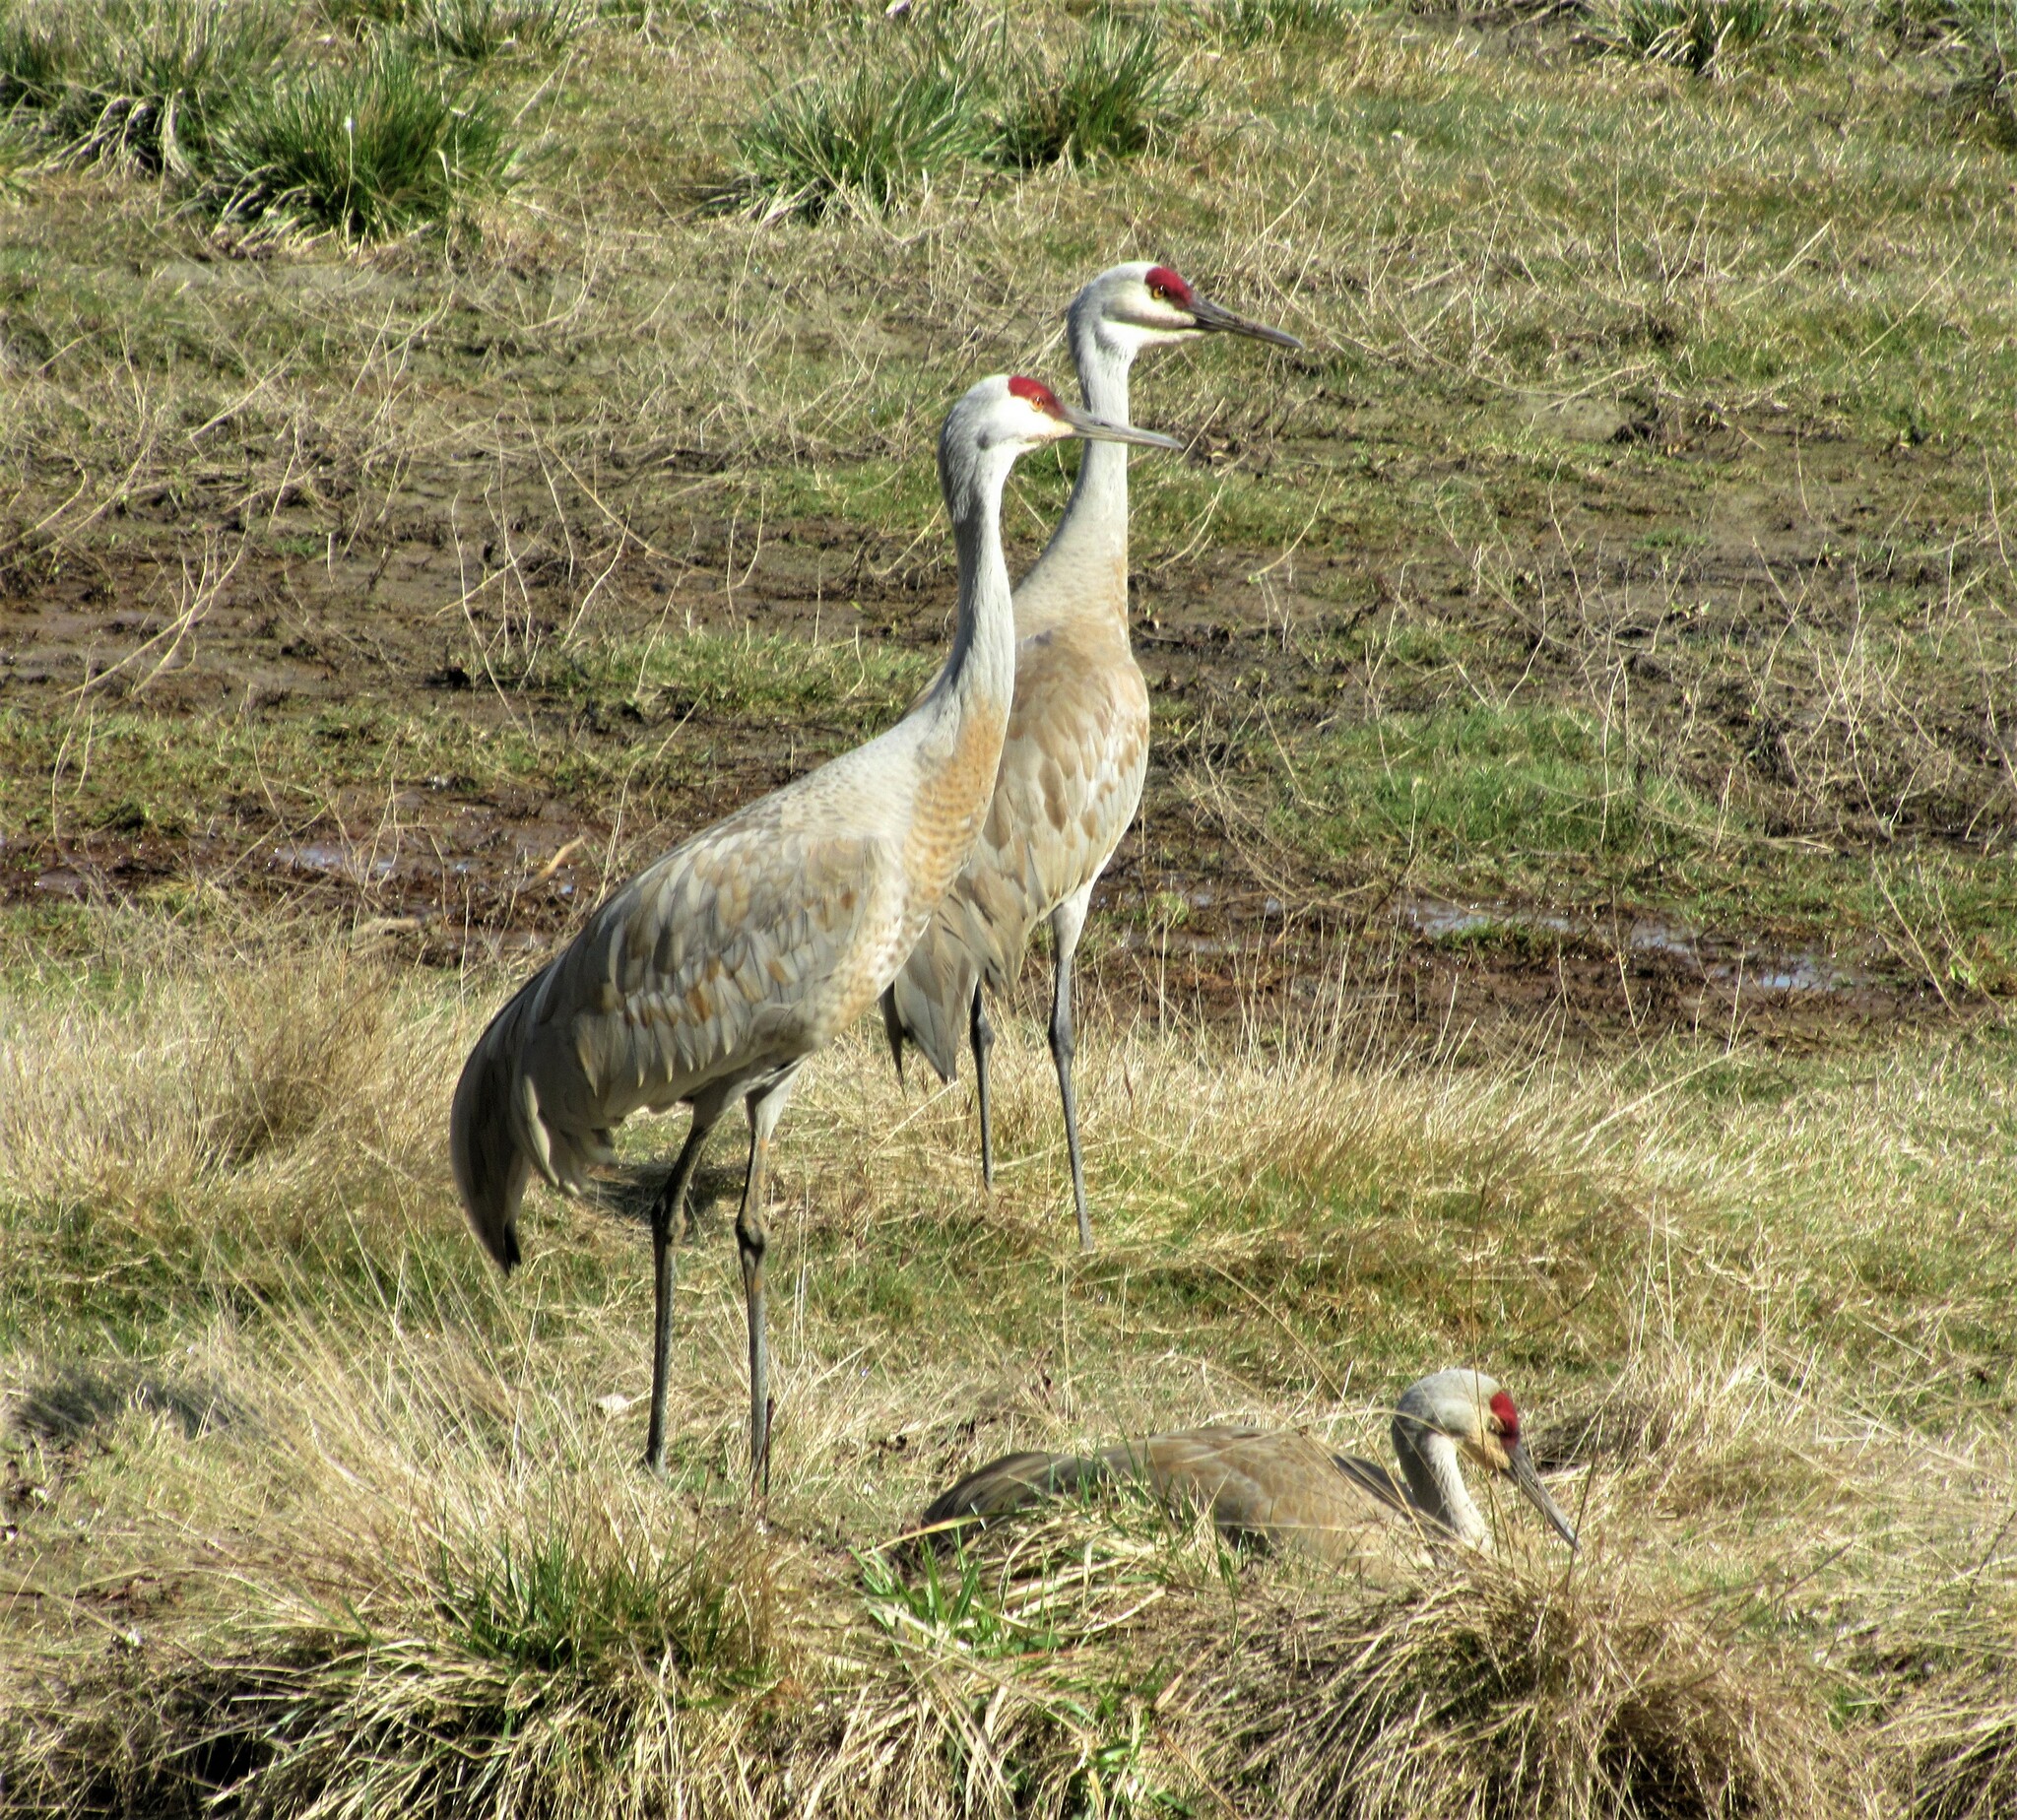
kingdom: Animalia
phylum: Chordata
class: Aves
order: Gruiformes
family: Gruidae
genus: Grus
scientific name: Grus canadensis
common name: Sandhill crane
